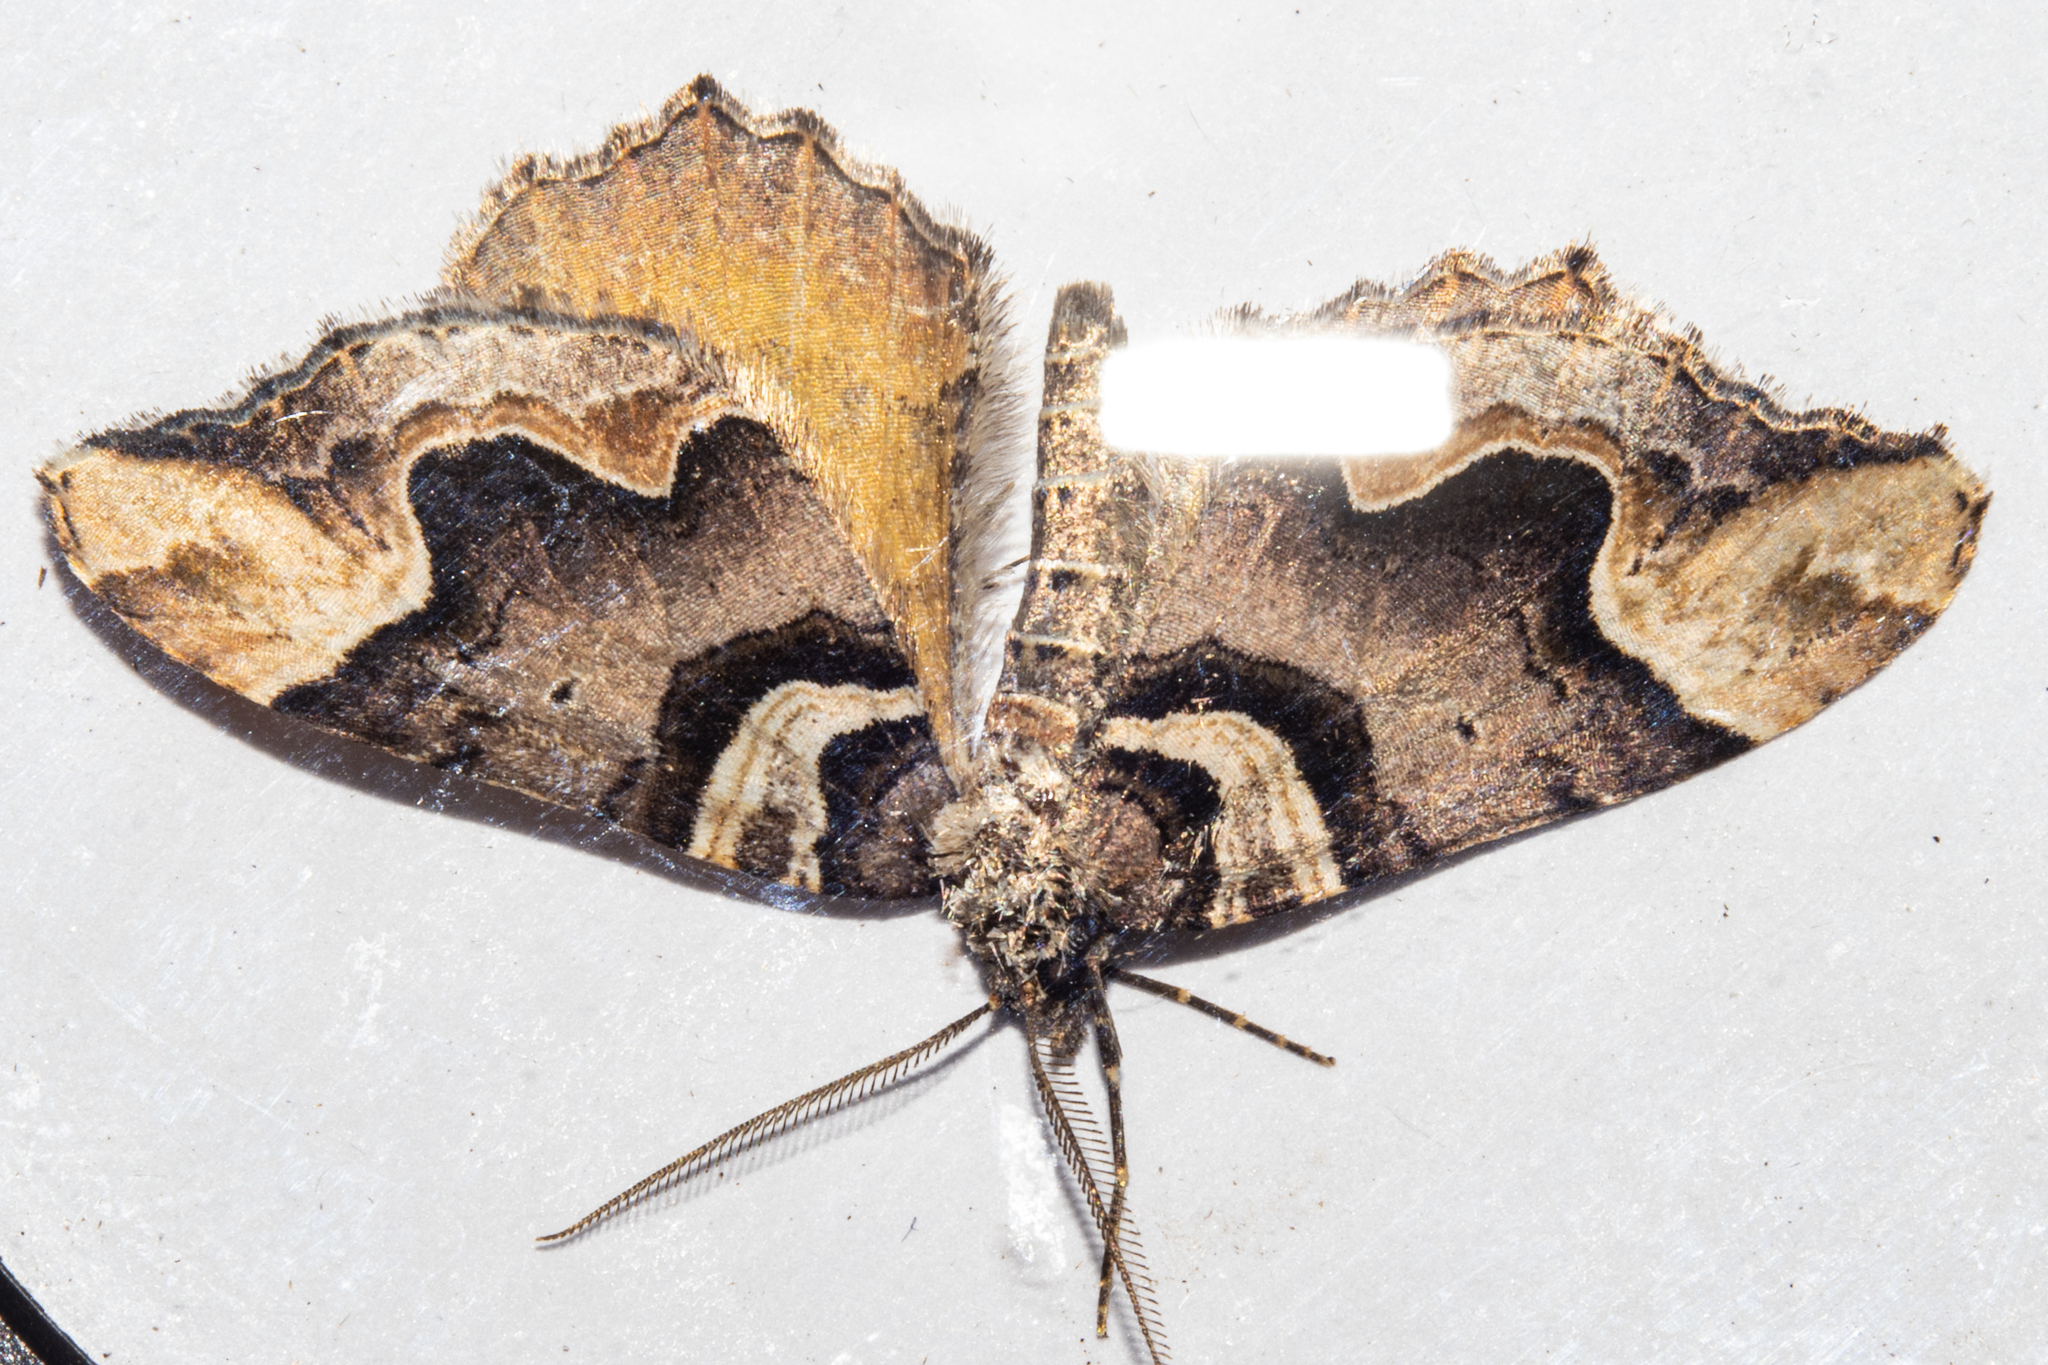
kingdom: Animalia
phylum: Arthropoda
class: Insecta
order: Lepidoptera
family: Geometridae
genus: Asaphodes
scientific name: Asaphodes chlamydota
